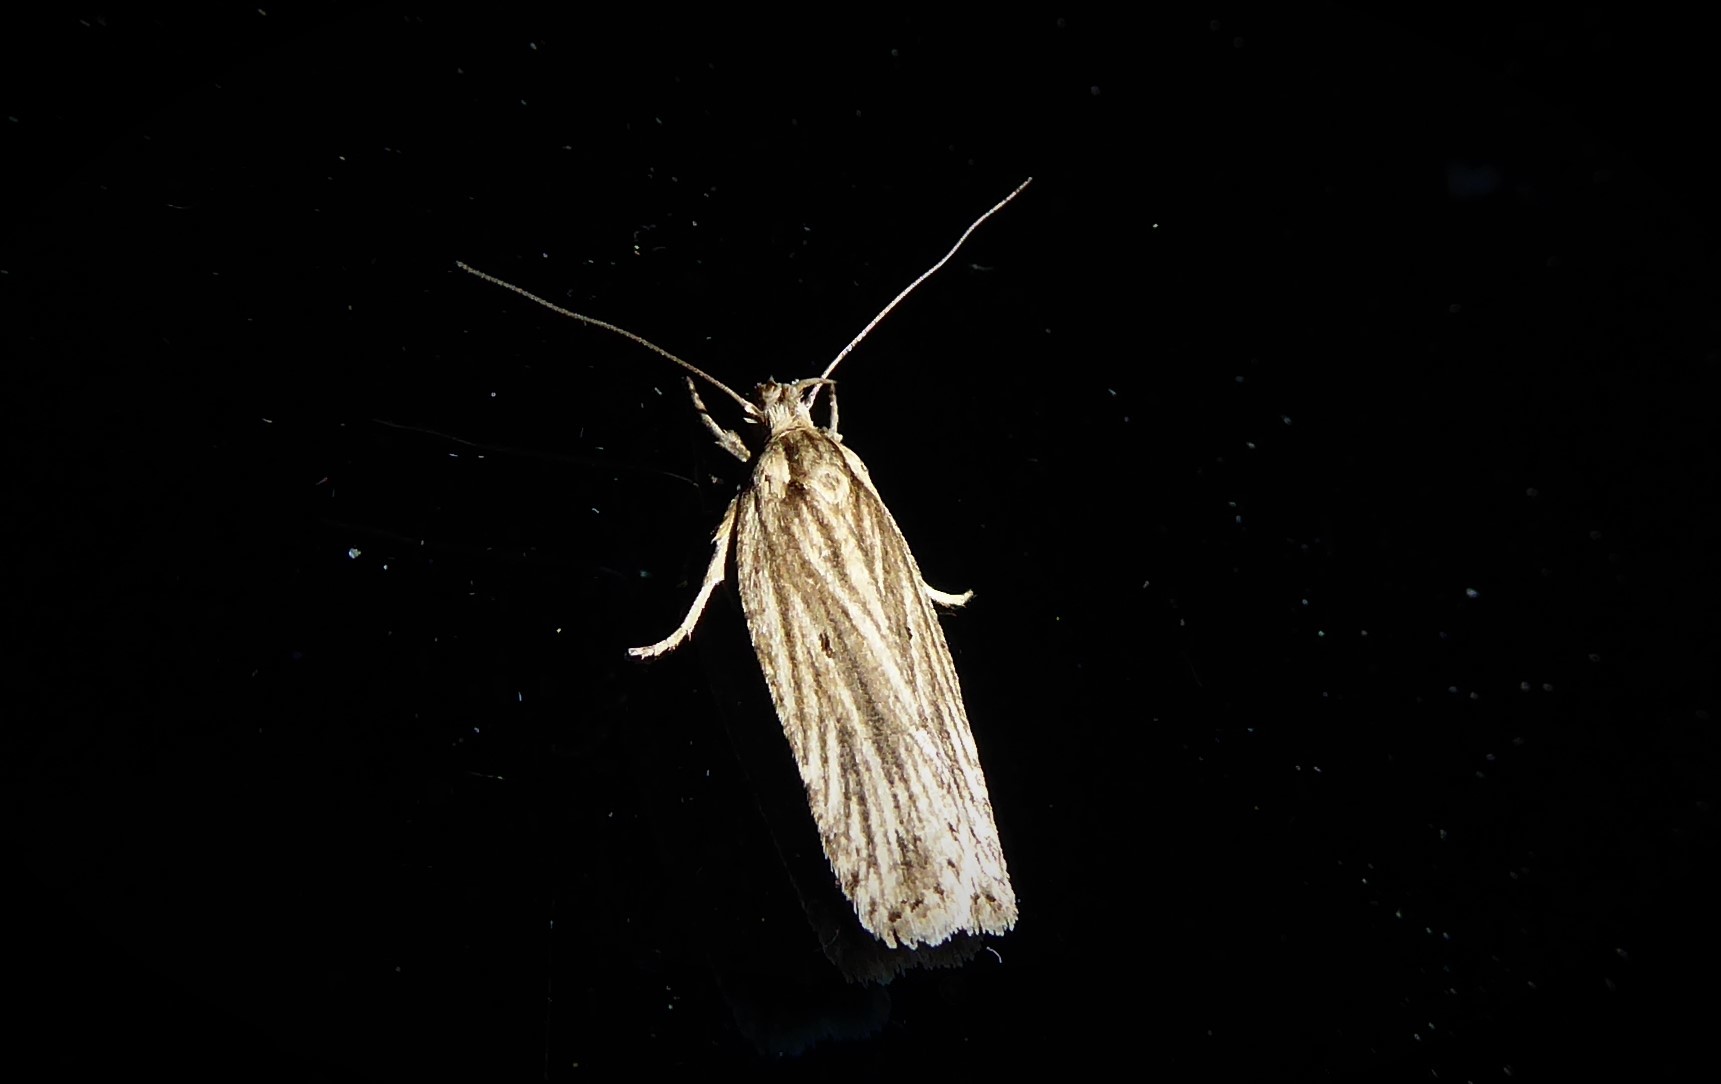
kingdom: Animalia
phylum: Arthropoda
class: Insecta
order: Lepidoptera
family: Depressariidae
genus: Agonopterix
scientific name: Agonopterix
